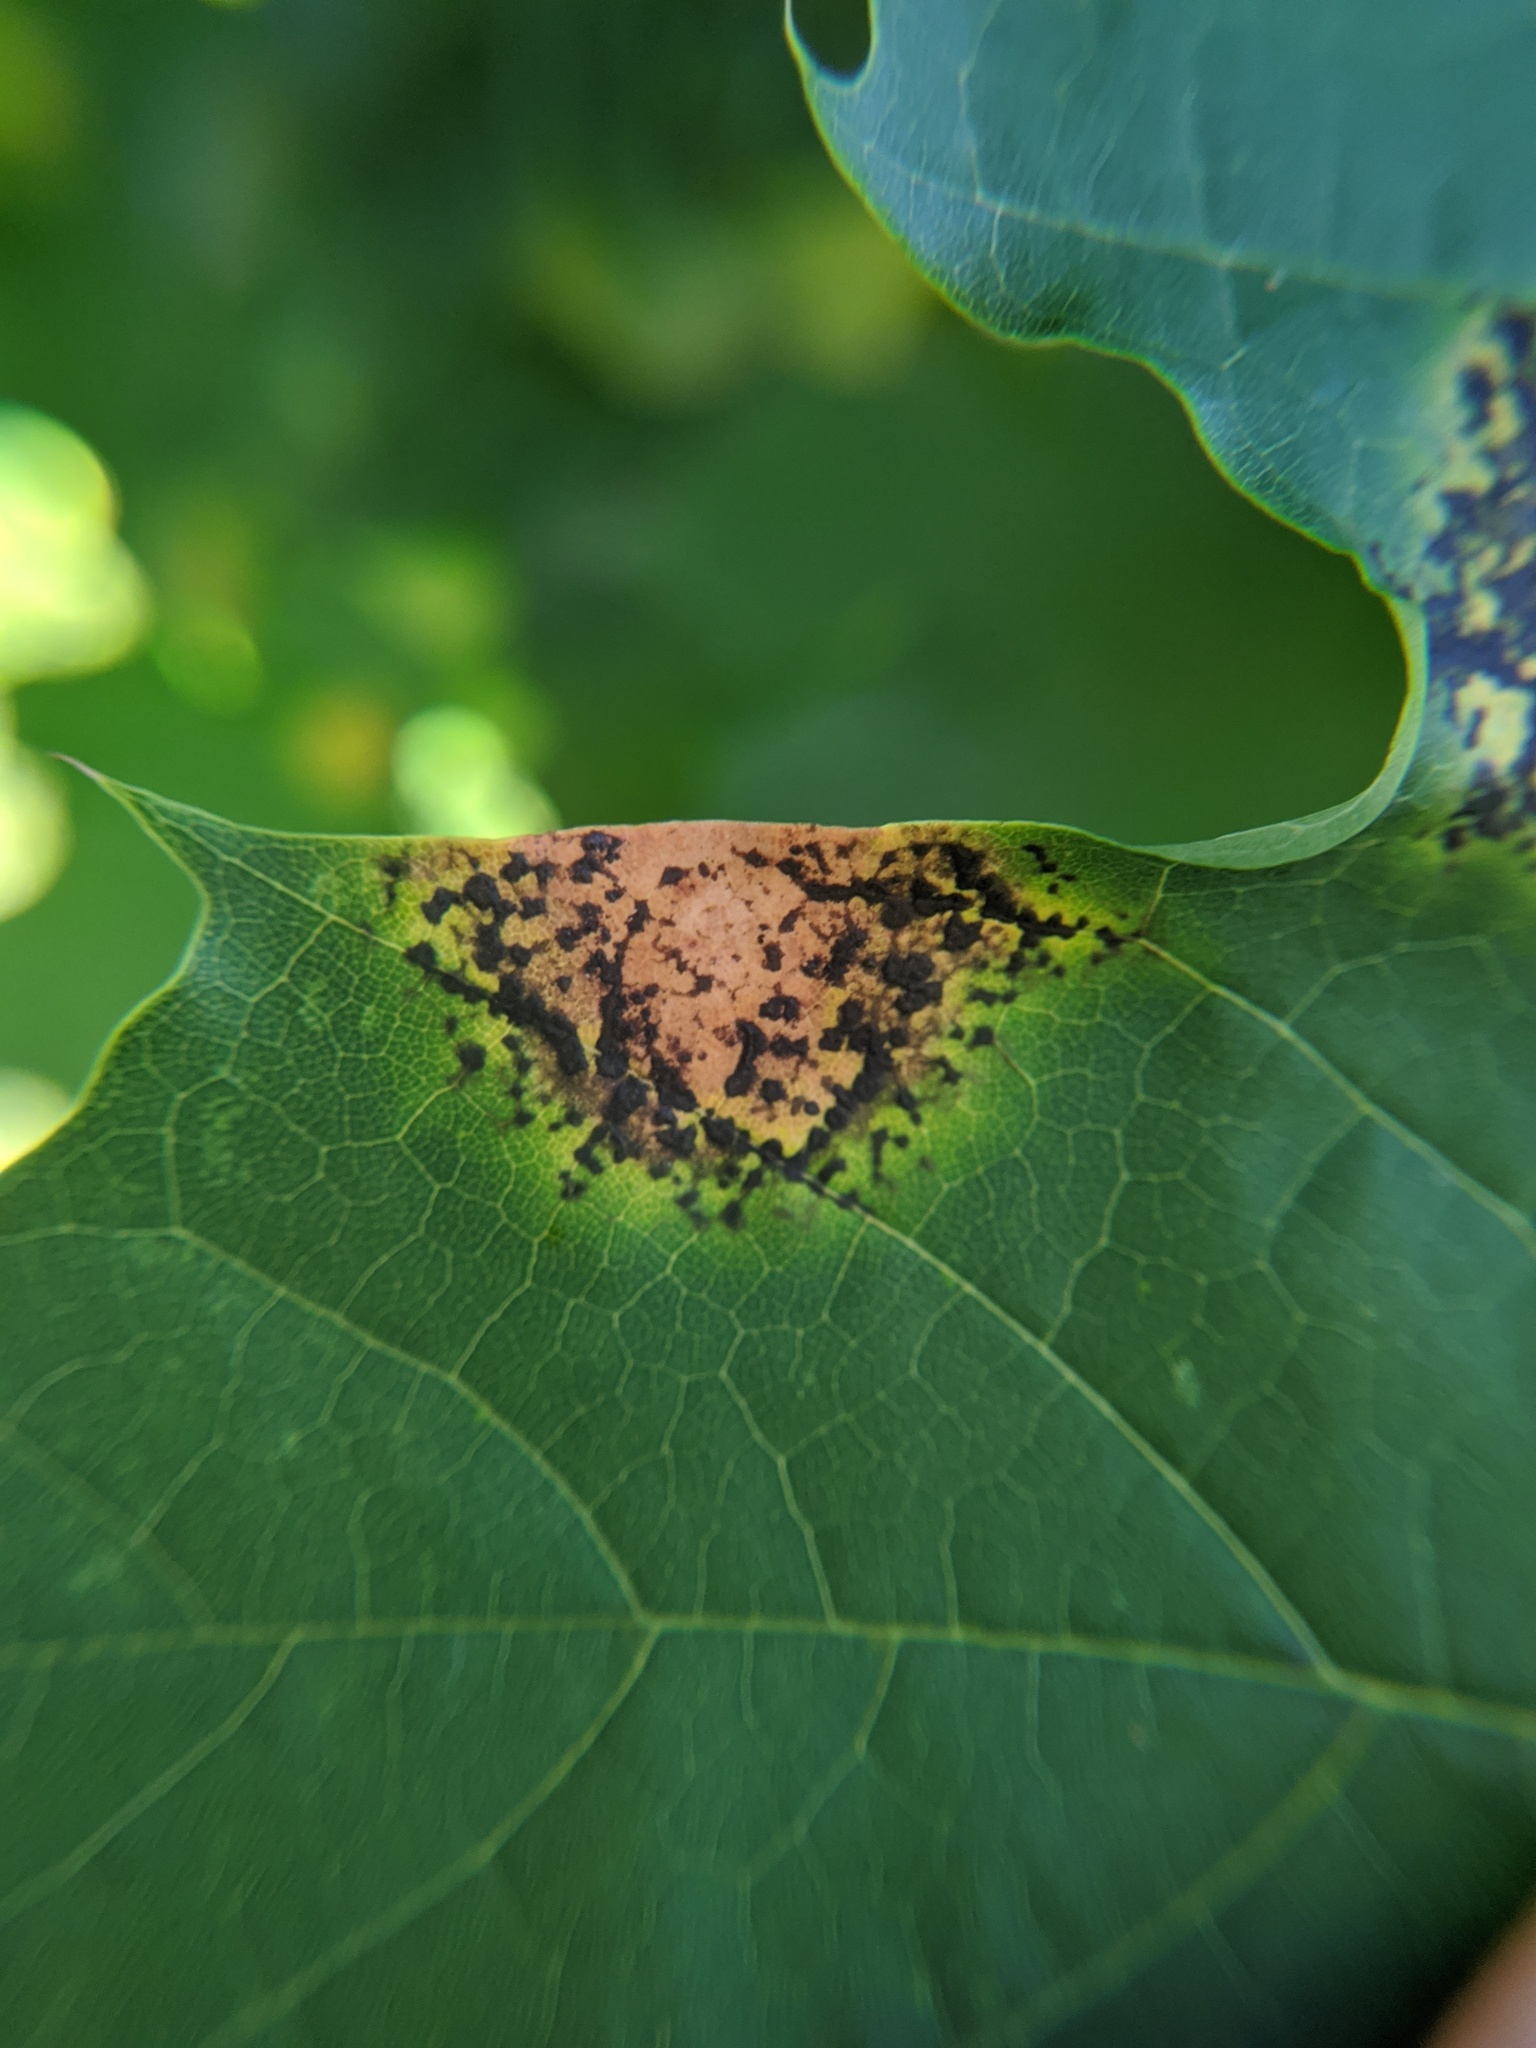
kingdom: Fungi
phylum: Ascomycota
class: Leotiomycetes
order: Rhytismatales
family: Rhytismataceae
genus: Rhytisma
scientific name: Rhytisma acerinum
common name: European tar spot
